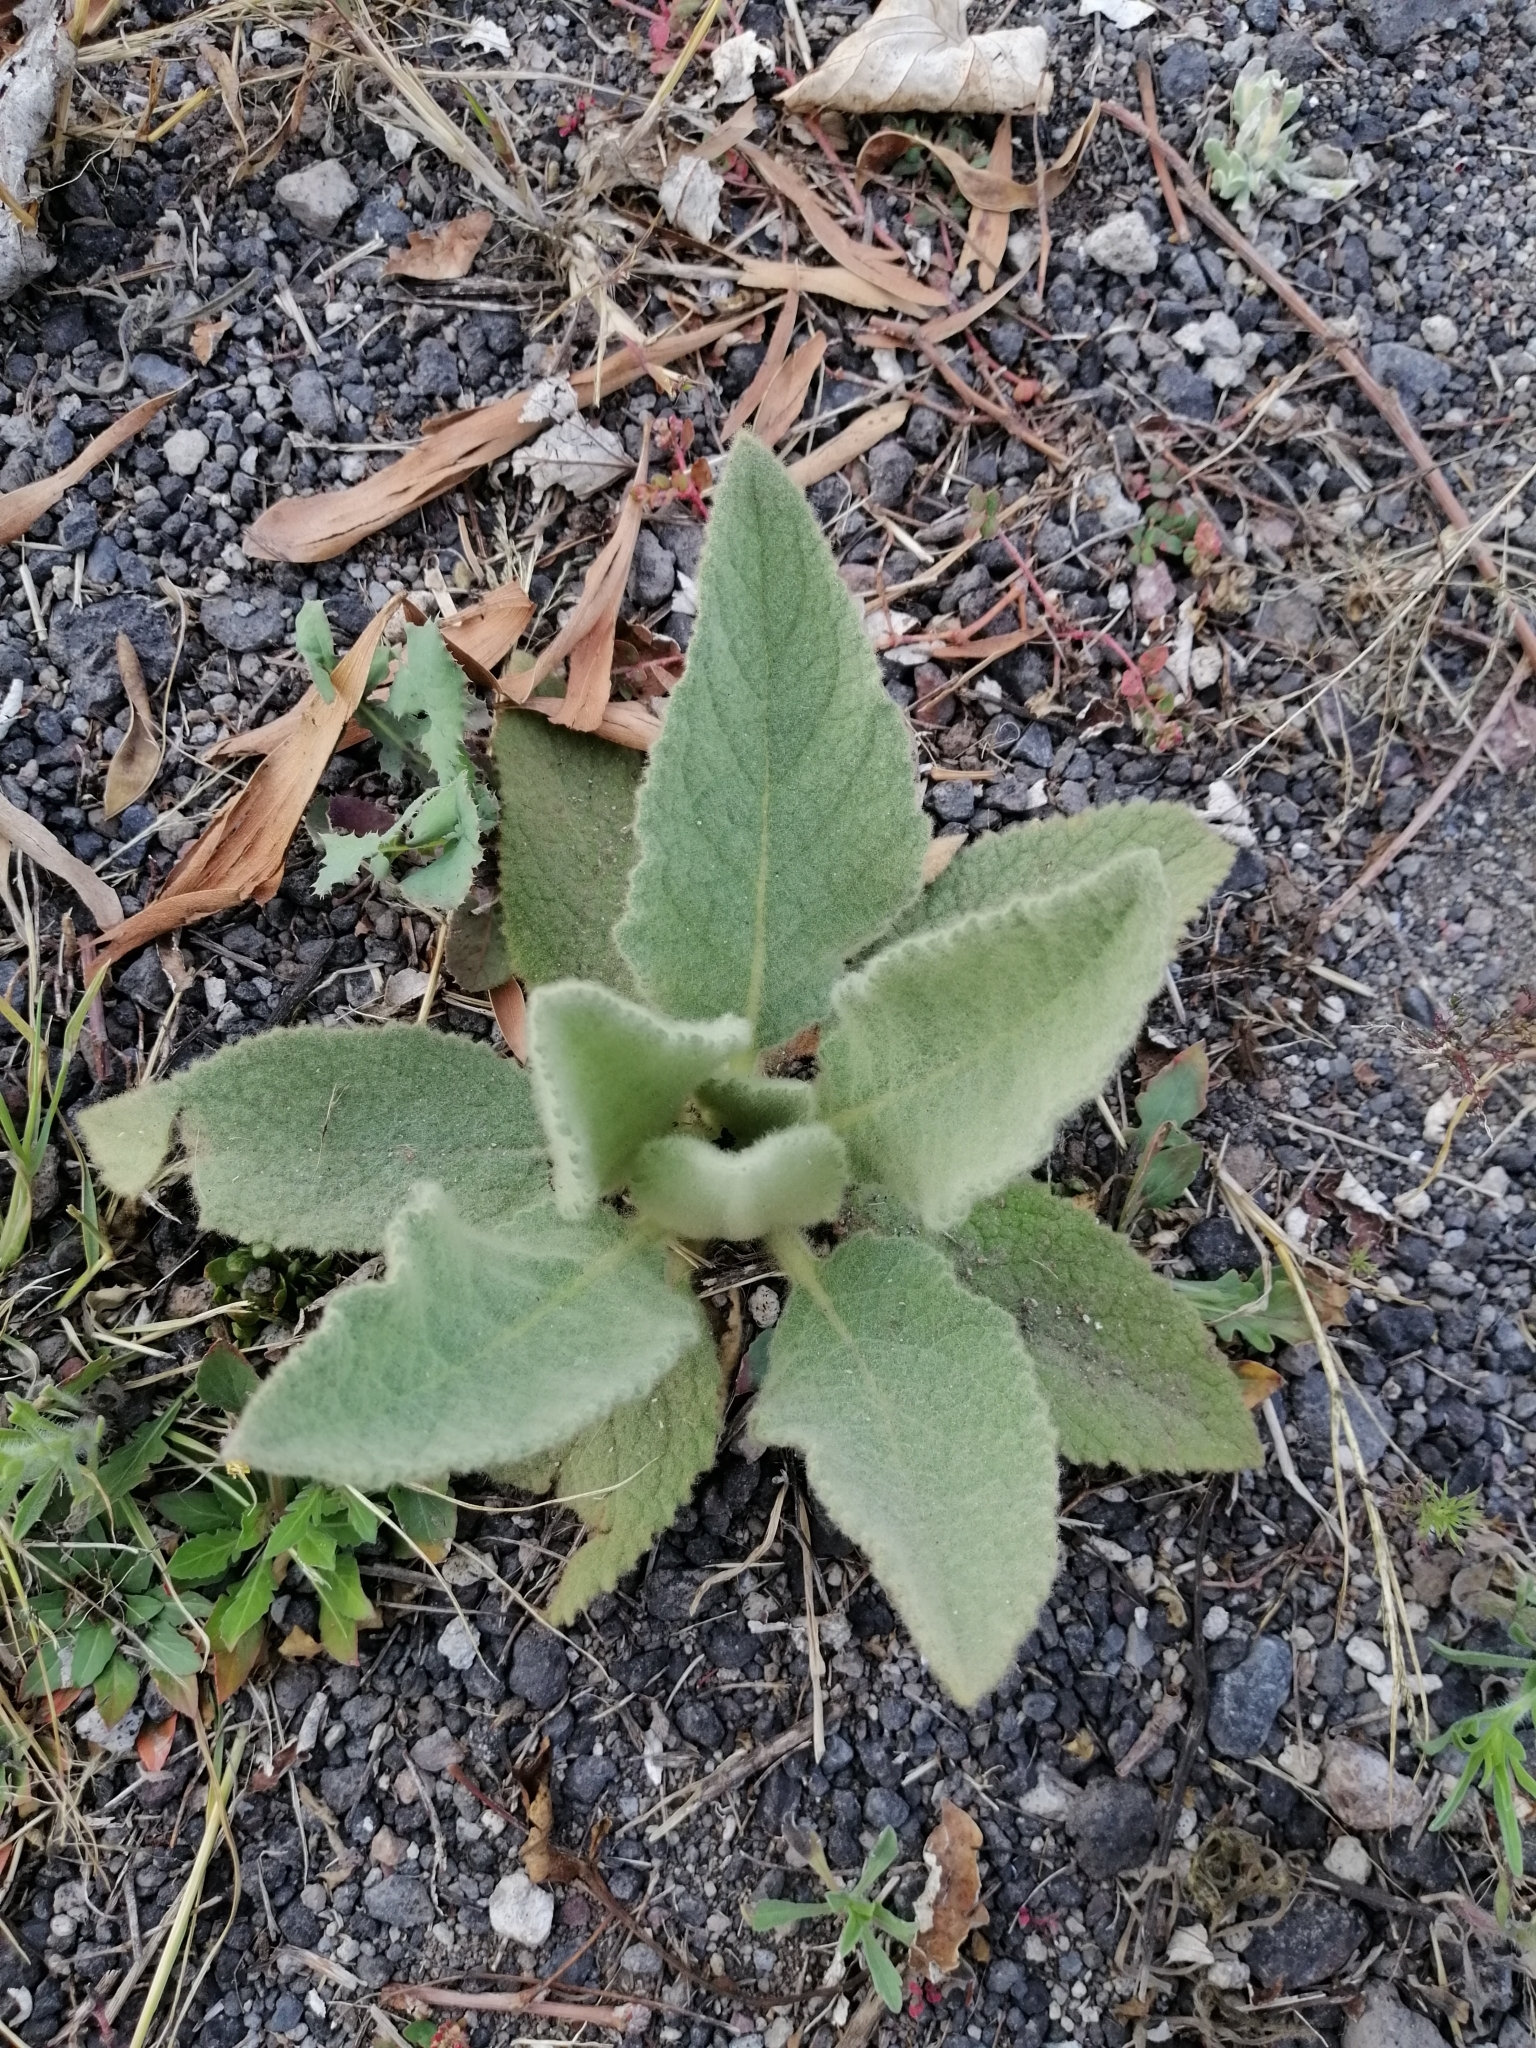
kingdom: Plantae
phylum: Tracheophyta
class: Magnoliopsida
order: Lamiales
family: Scrophulariaceae
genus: Verbascum
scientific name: Verbascum phlomoides
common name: Orange mullein
